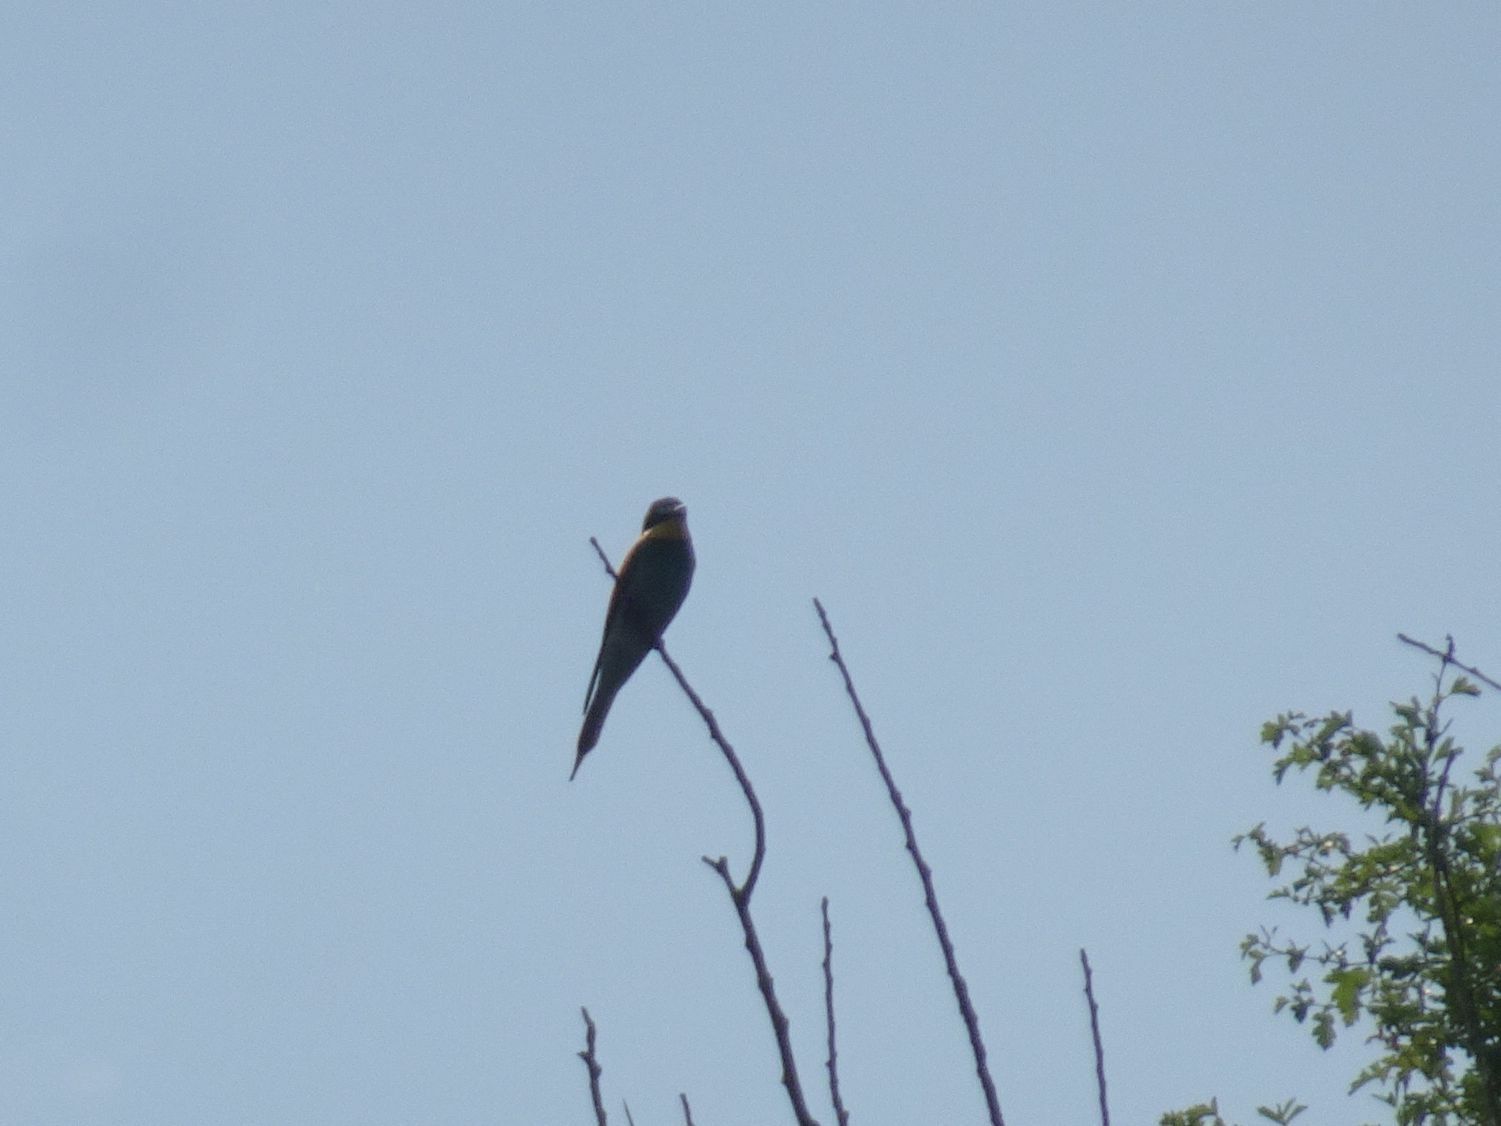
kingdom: Animalia
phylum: Chordata
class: Aves
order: Coraciiformes
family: Meropidae
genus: Merops
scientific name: Merops apiaster
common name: European bee-eater
